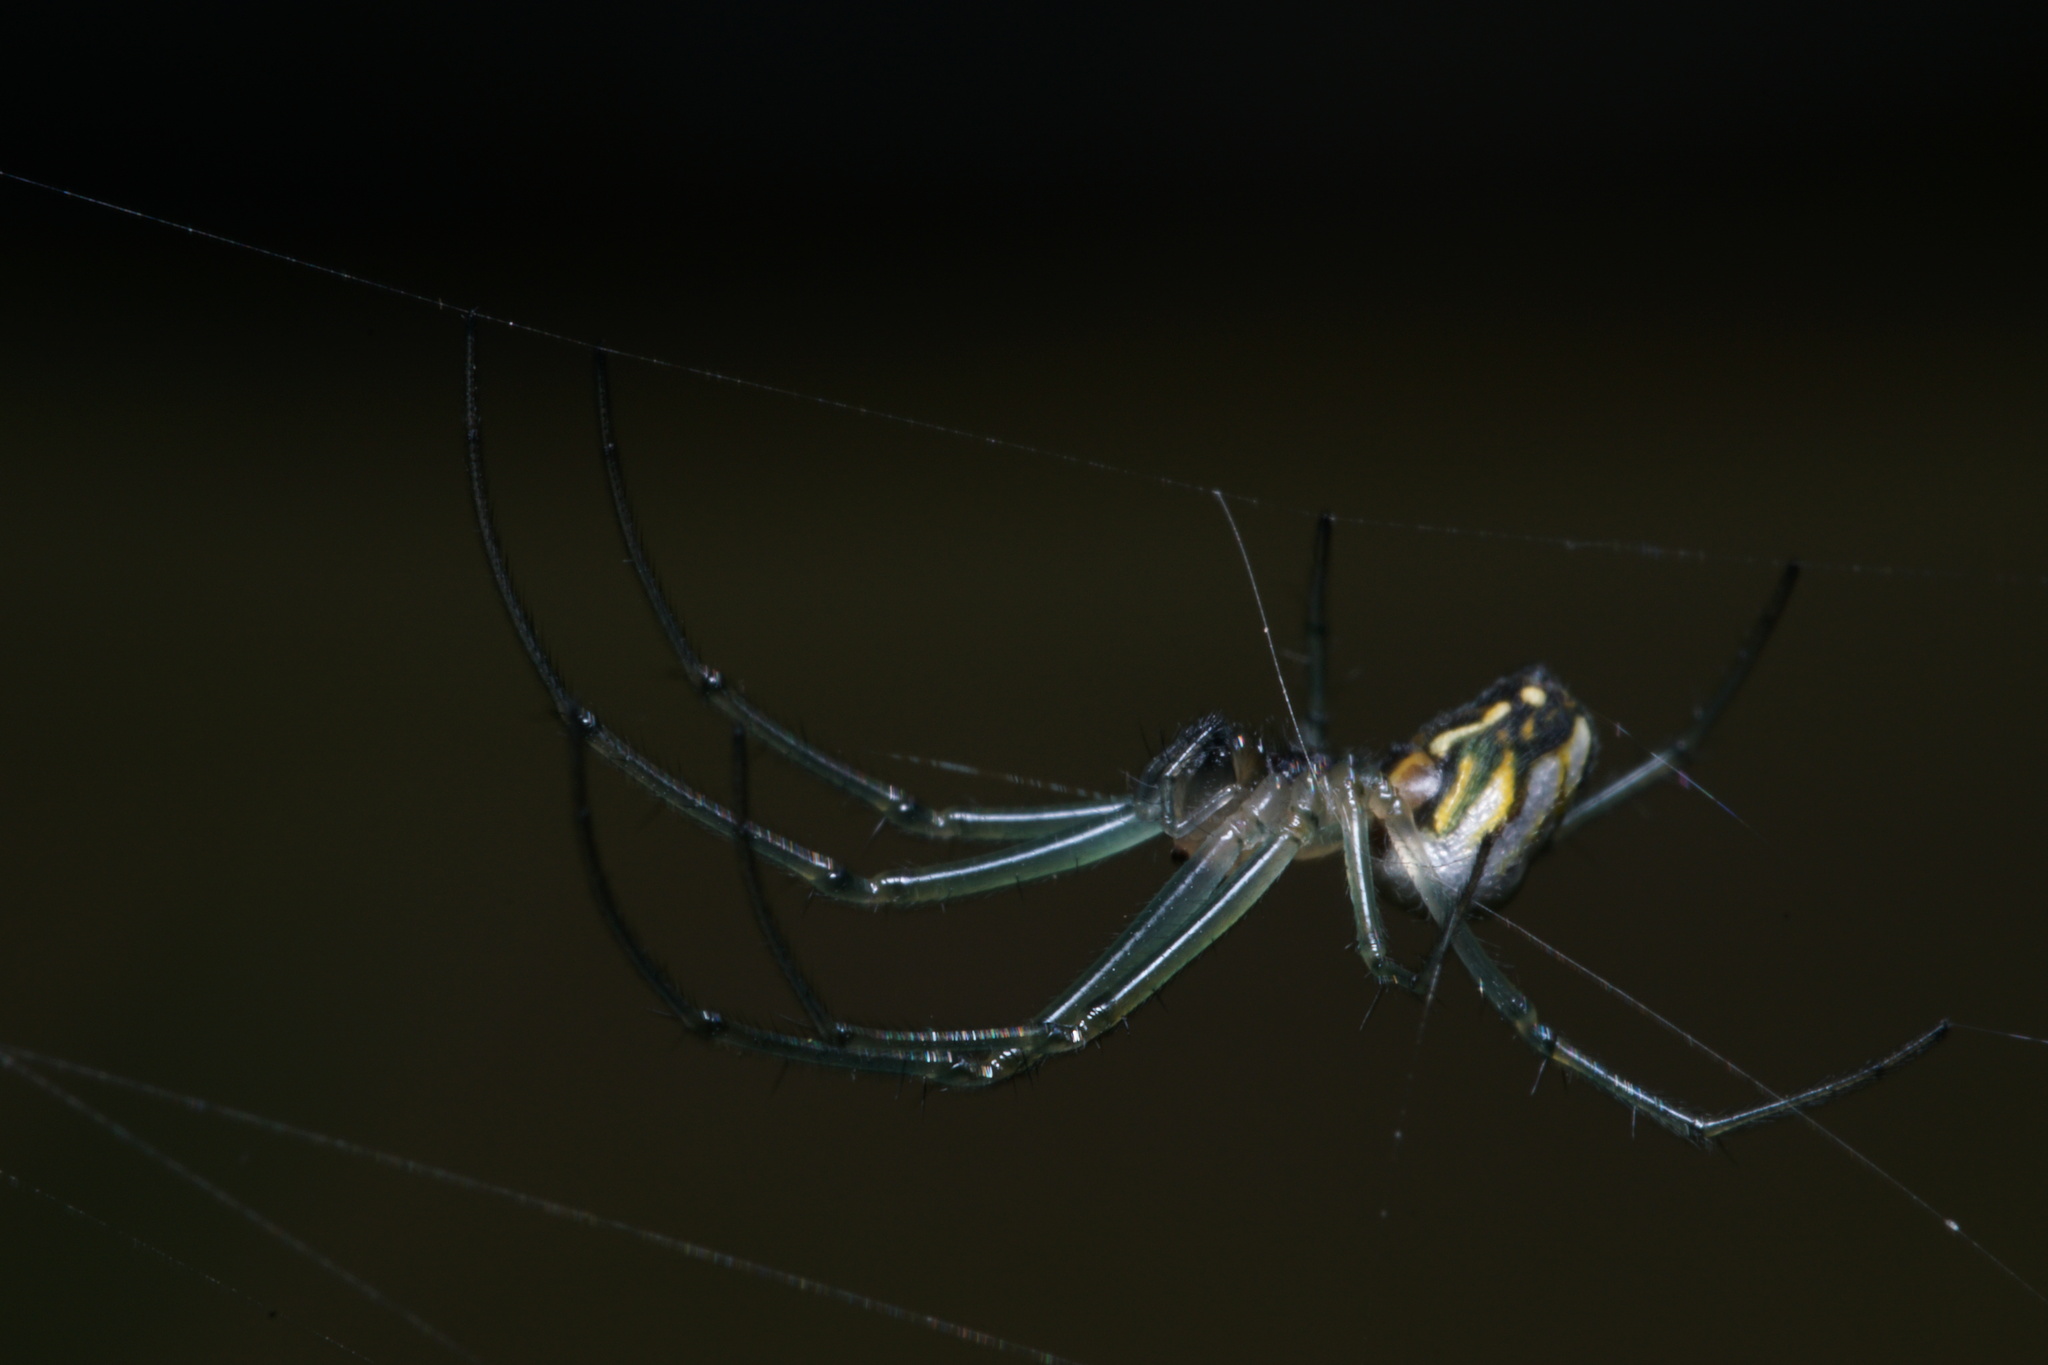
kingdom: Animalia
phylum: Arthropoda
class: Arachnida
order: Araneae
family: Tetragnathidae
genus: Leucauge
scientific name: Leucauge volupis
